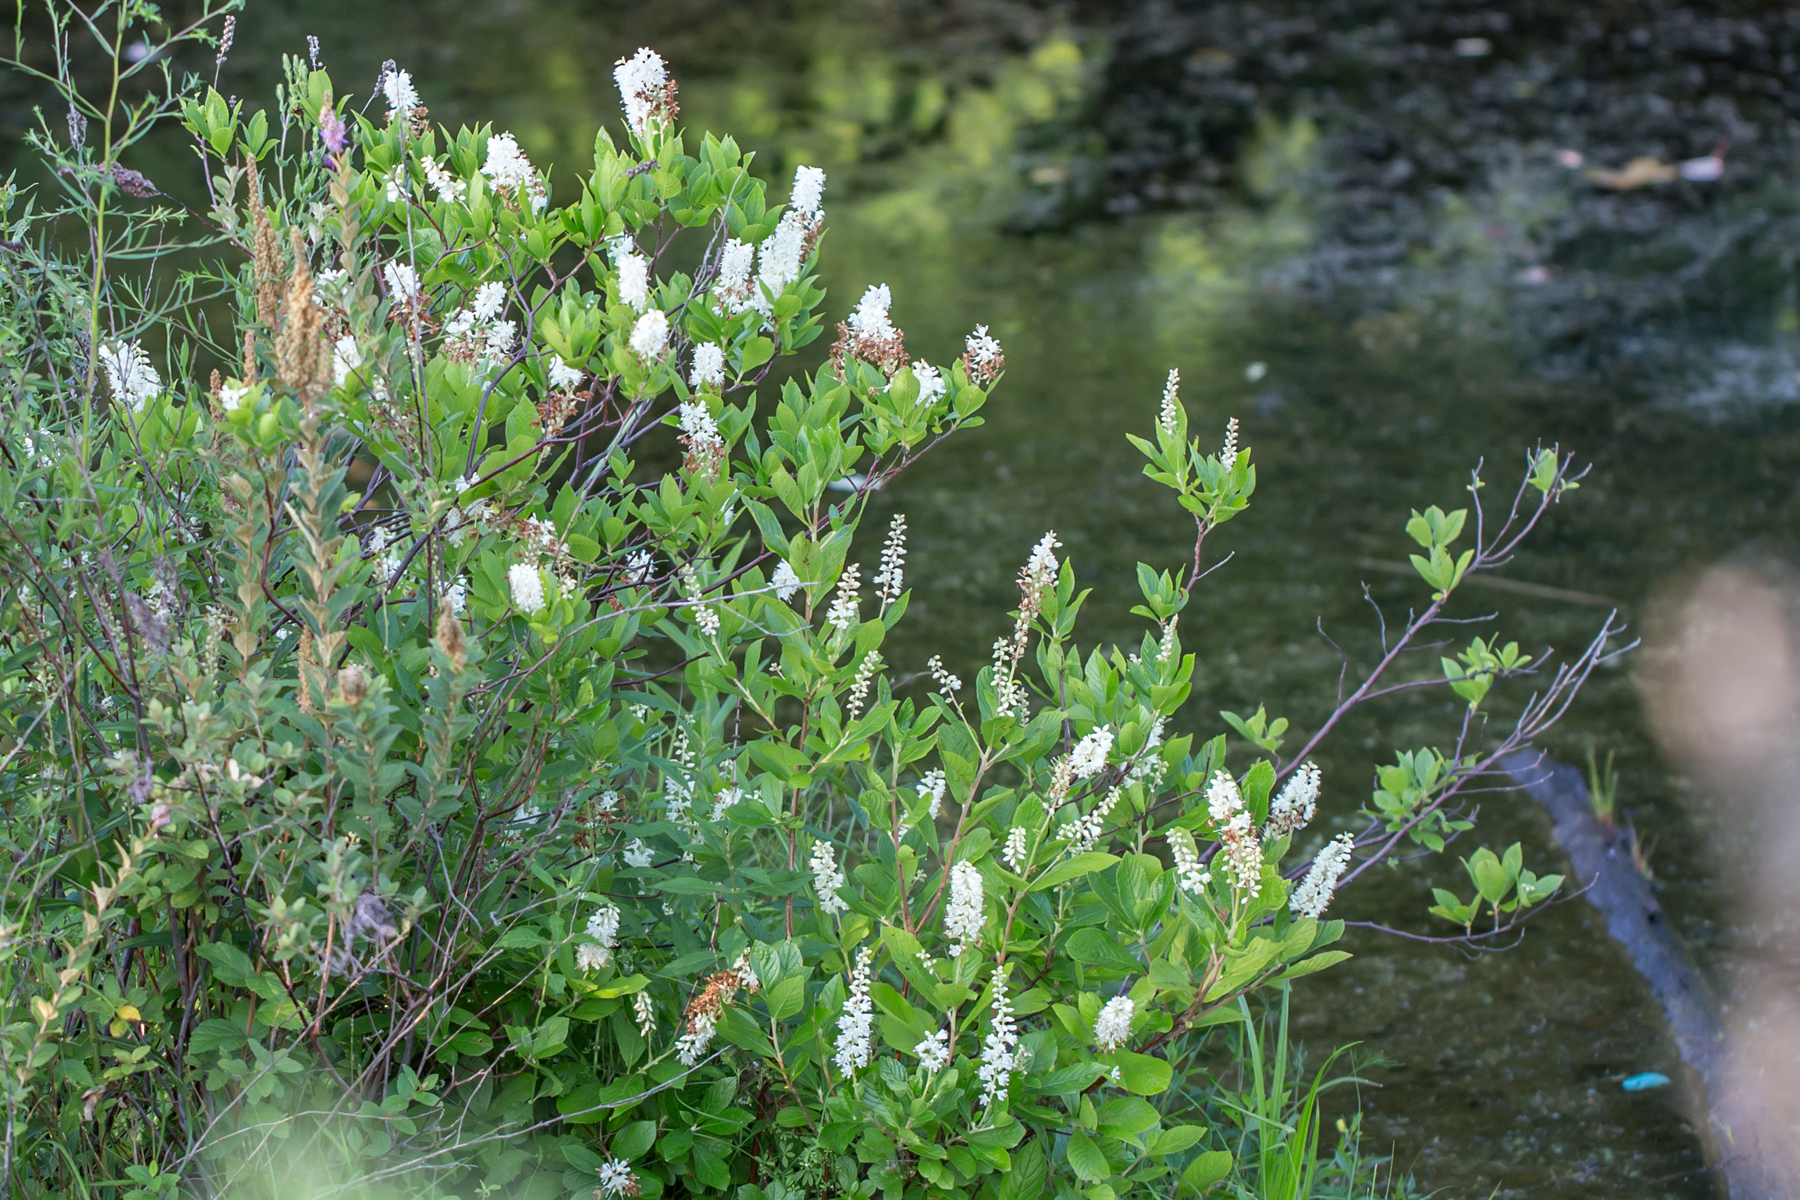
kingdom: Plantae
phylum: Tracheophyta
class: Magnoliopsida
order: Ericales
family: Clethraceae
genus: Clethra
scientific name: Clethra alnifolia
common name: Sweet pepperbush
